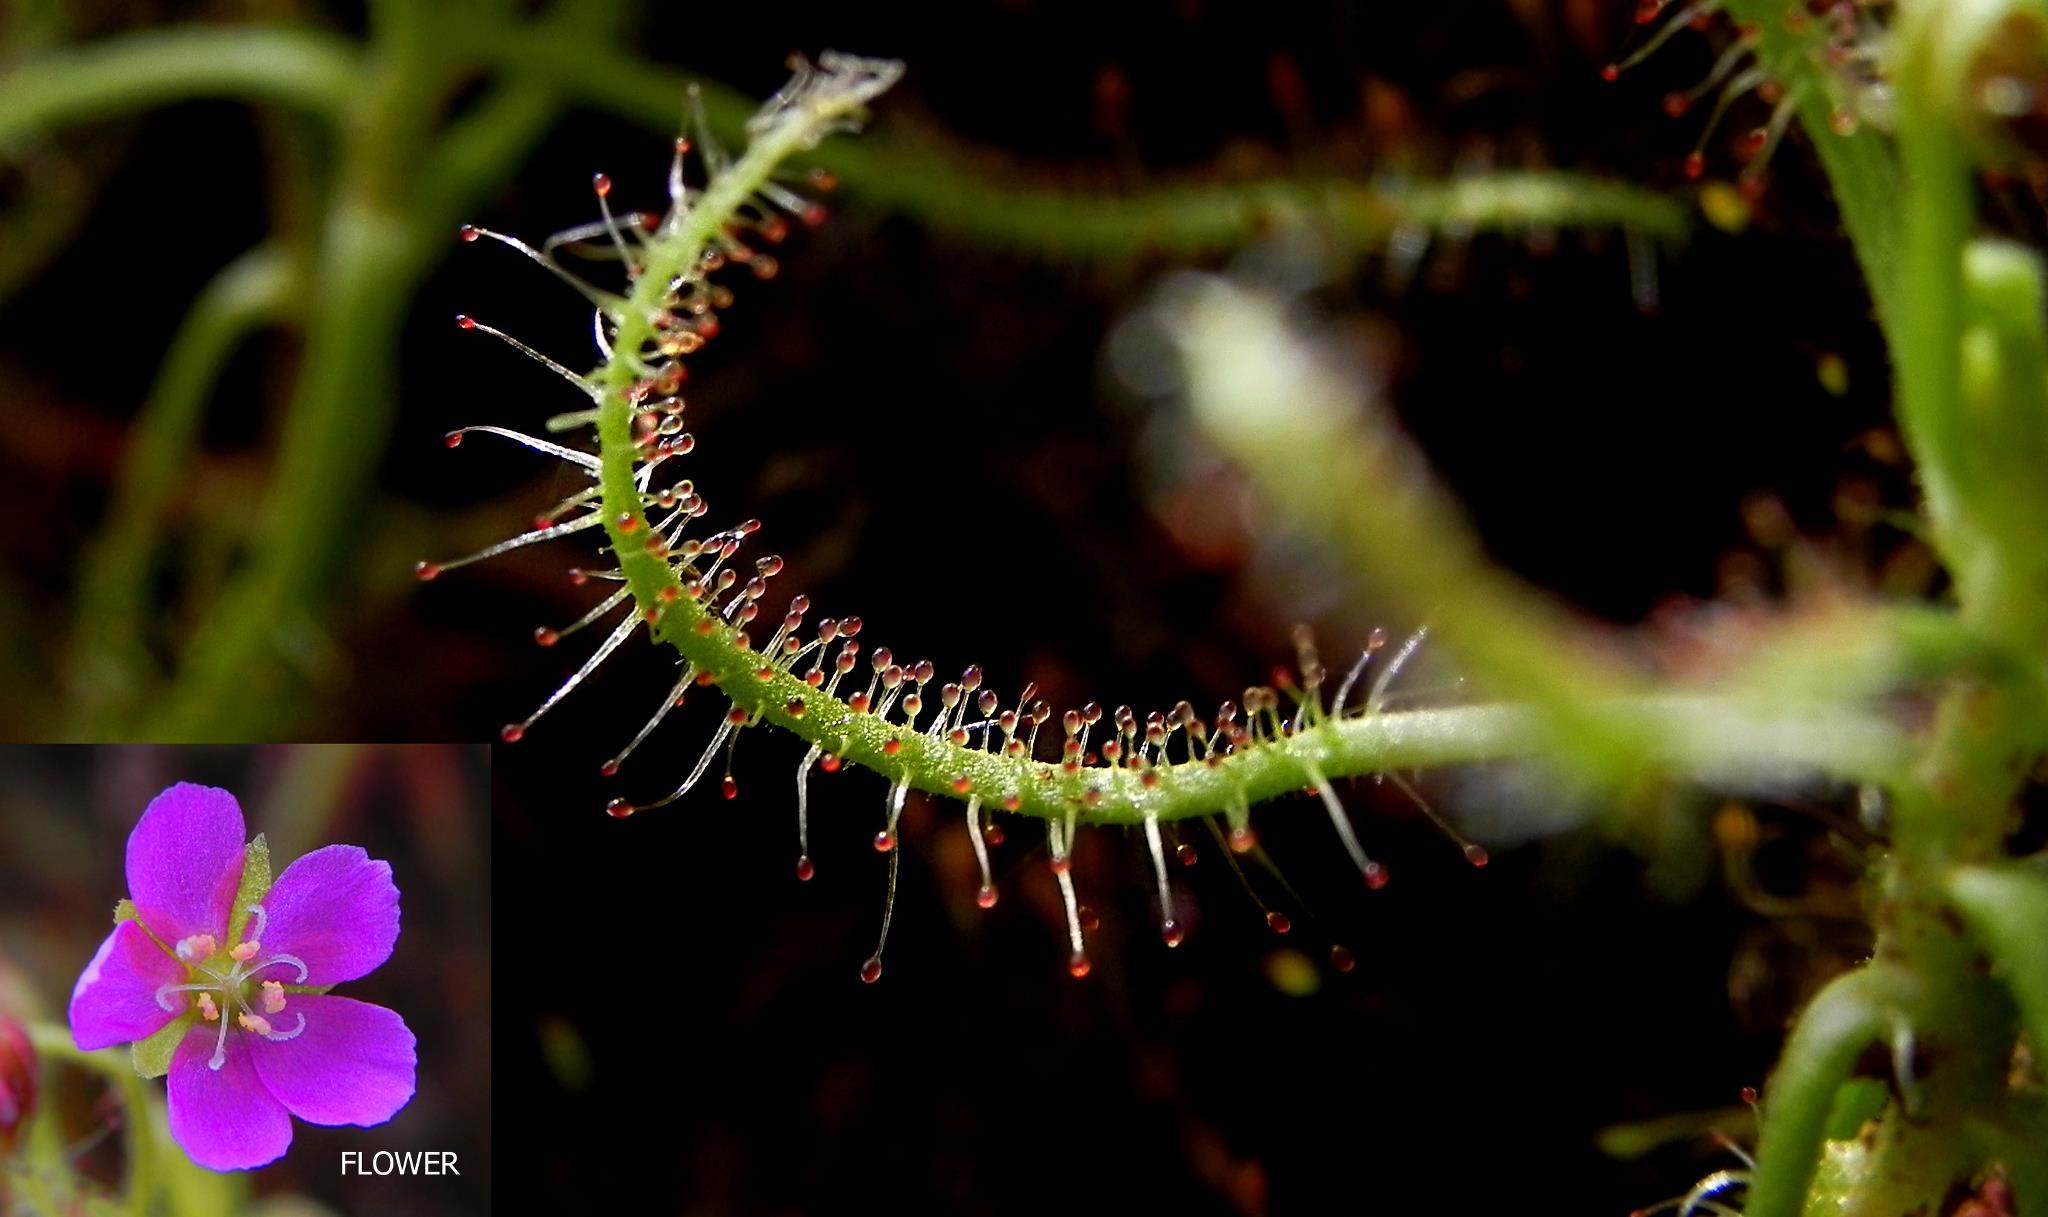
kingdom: Plantae
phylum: Tracheophyta
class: Magnoliopsida
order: Caryophyllales
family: Droseraceae
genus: Drosera
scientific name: Drosera indica
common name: Indian sundew
